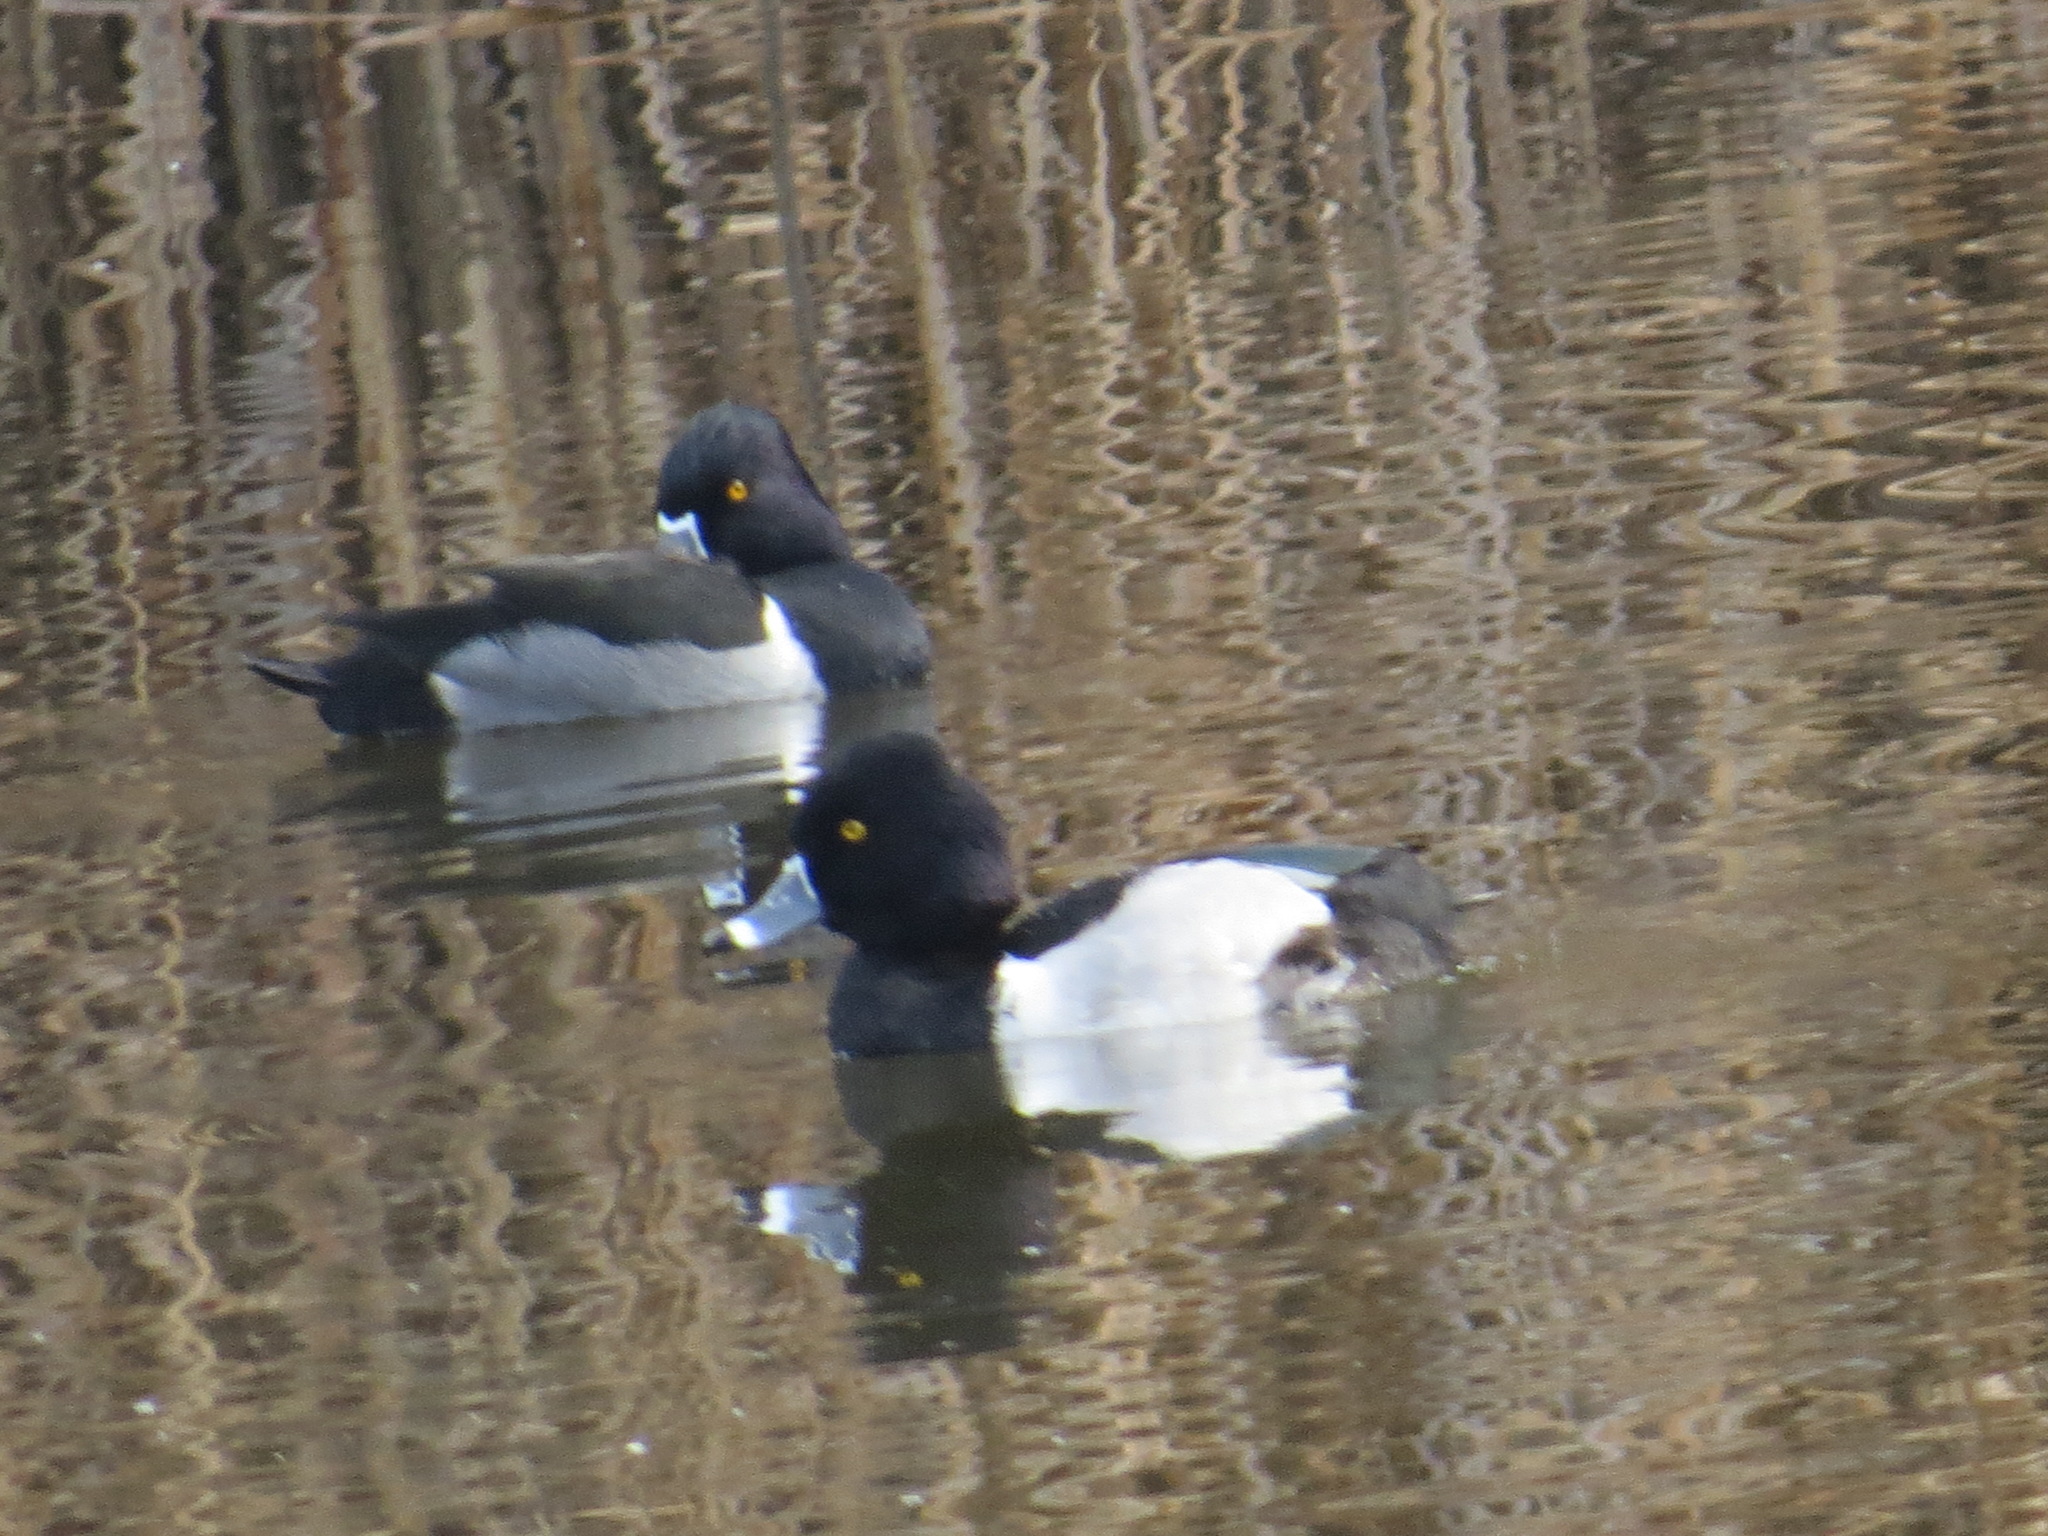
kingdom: Animalia
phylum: Chordata
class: Aves
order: Anseriformes
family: Anatidae
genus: Aythya
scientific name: Aythya collaris
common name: Ring-necked duck
